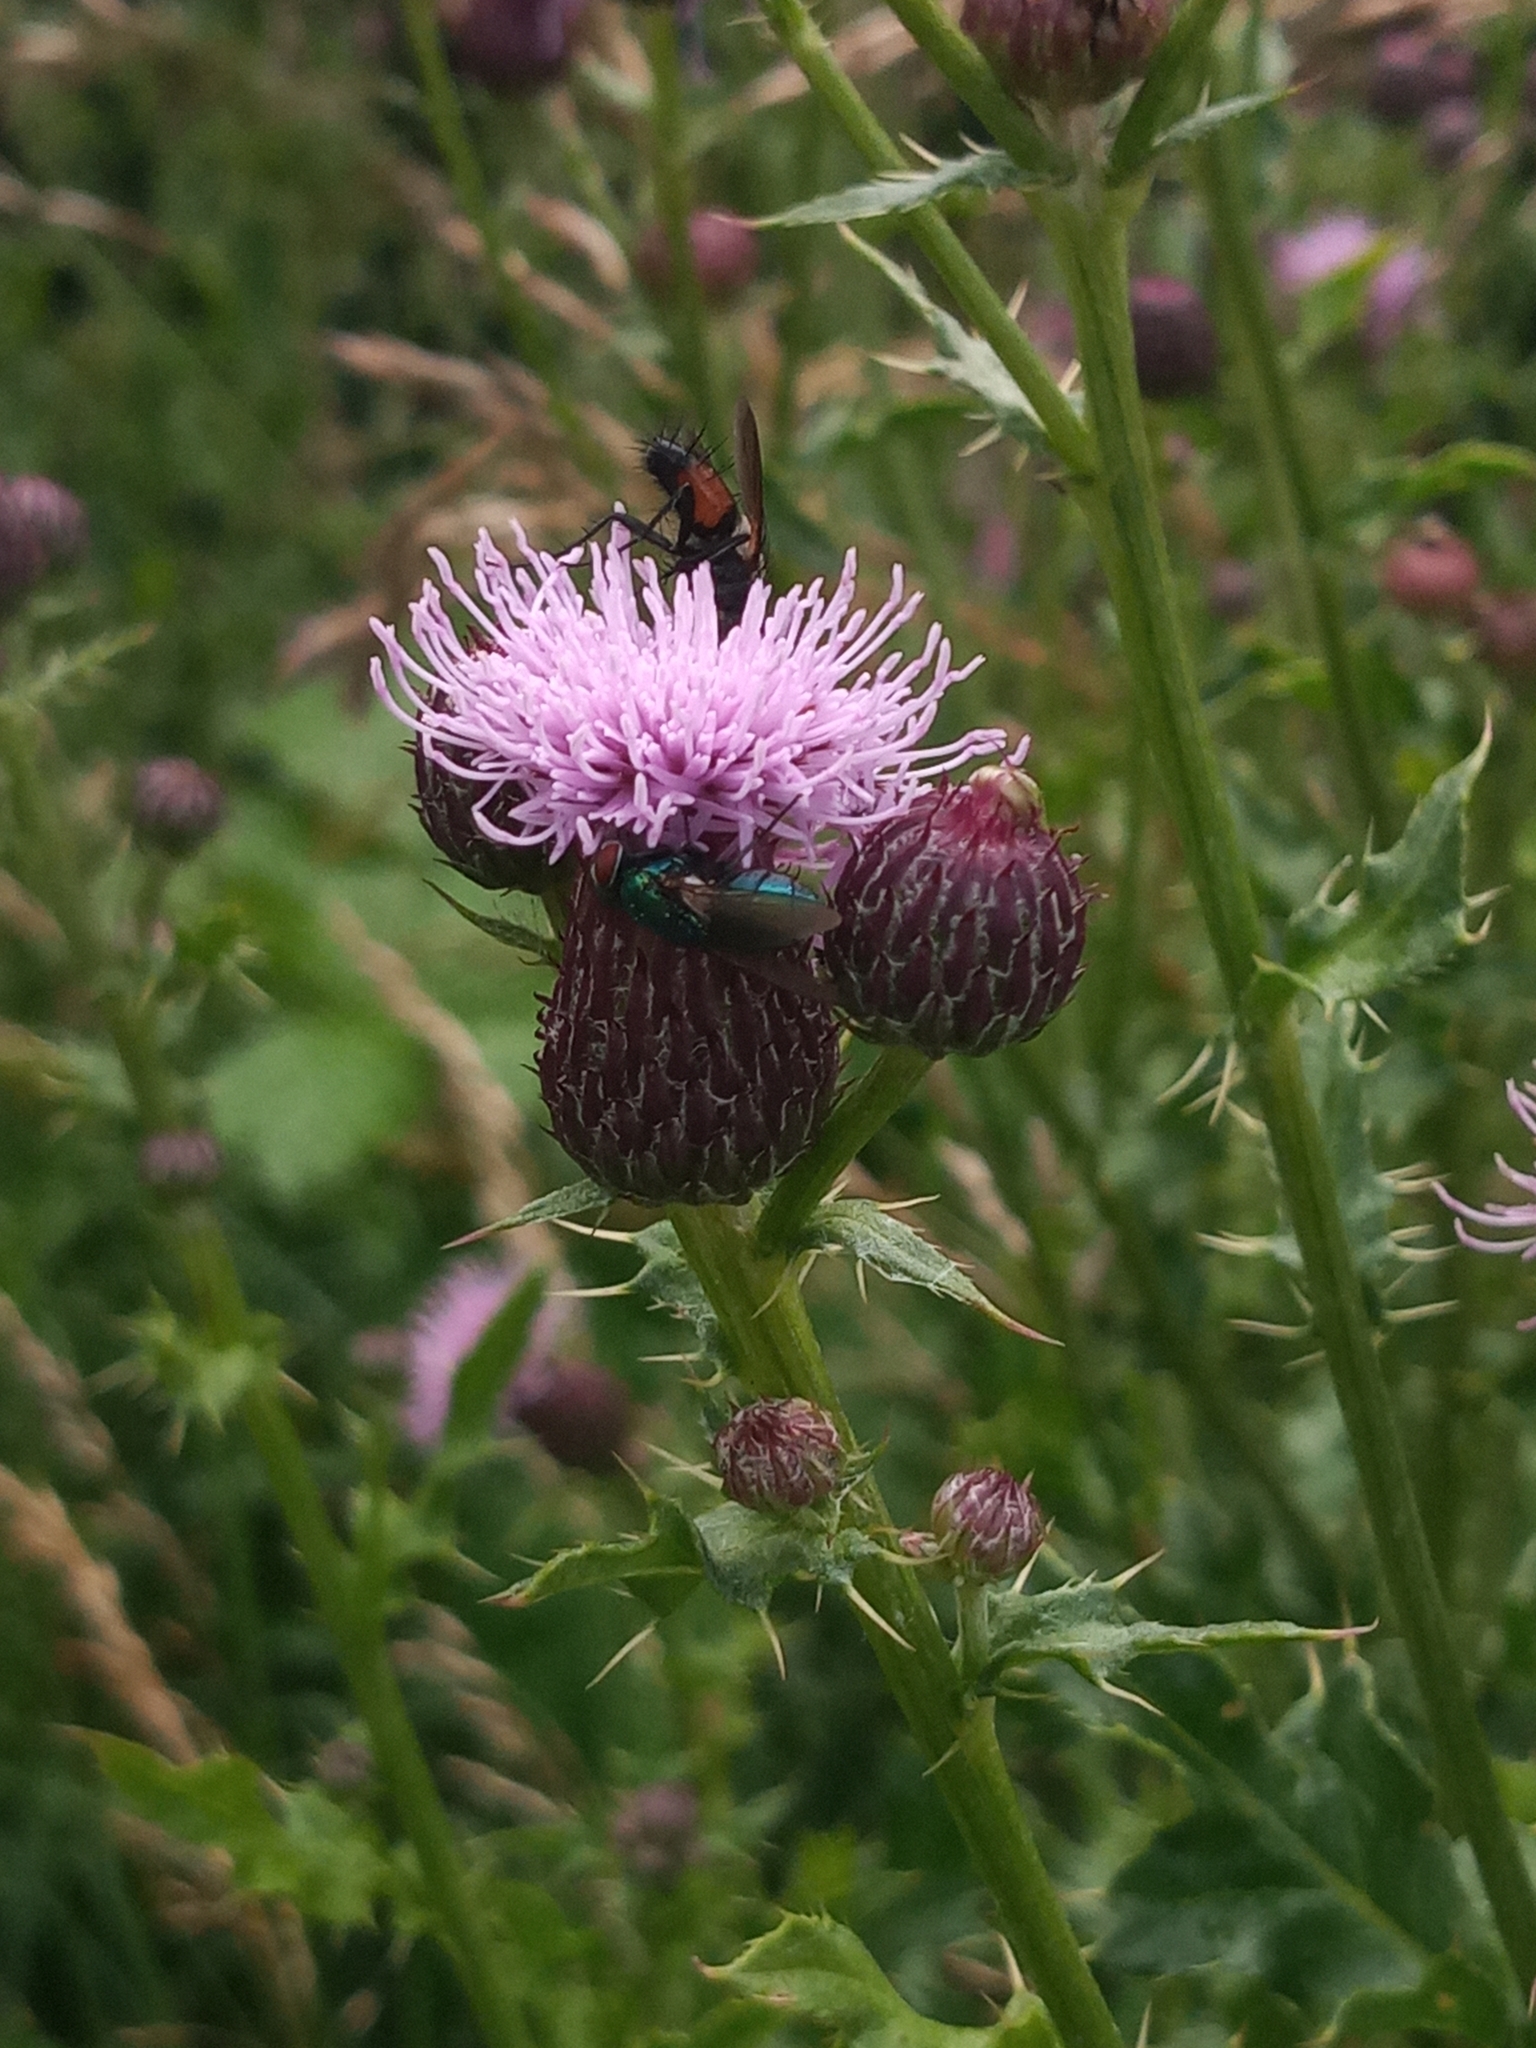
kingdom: Plantae
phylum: Tracheophyta
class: Magnoliopsida
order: Asterales
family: Asteraceae
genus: Cirsium
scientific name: Cirsium arvense
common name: Creeping thistle
